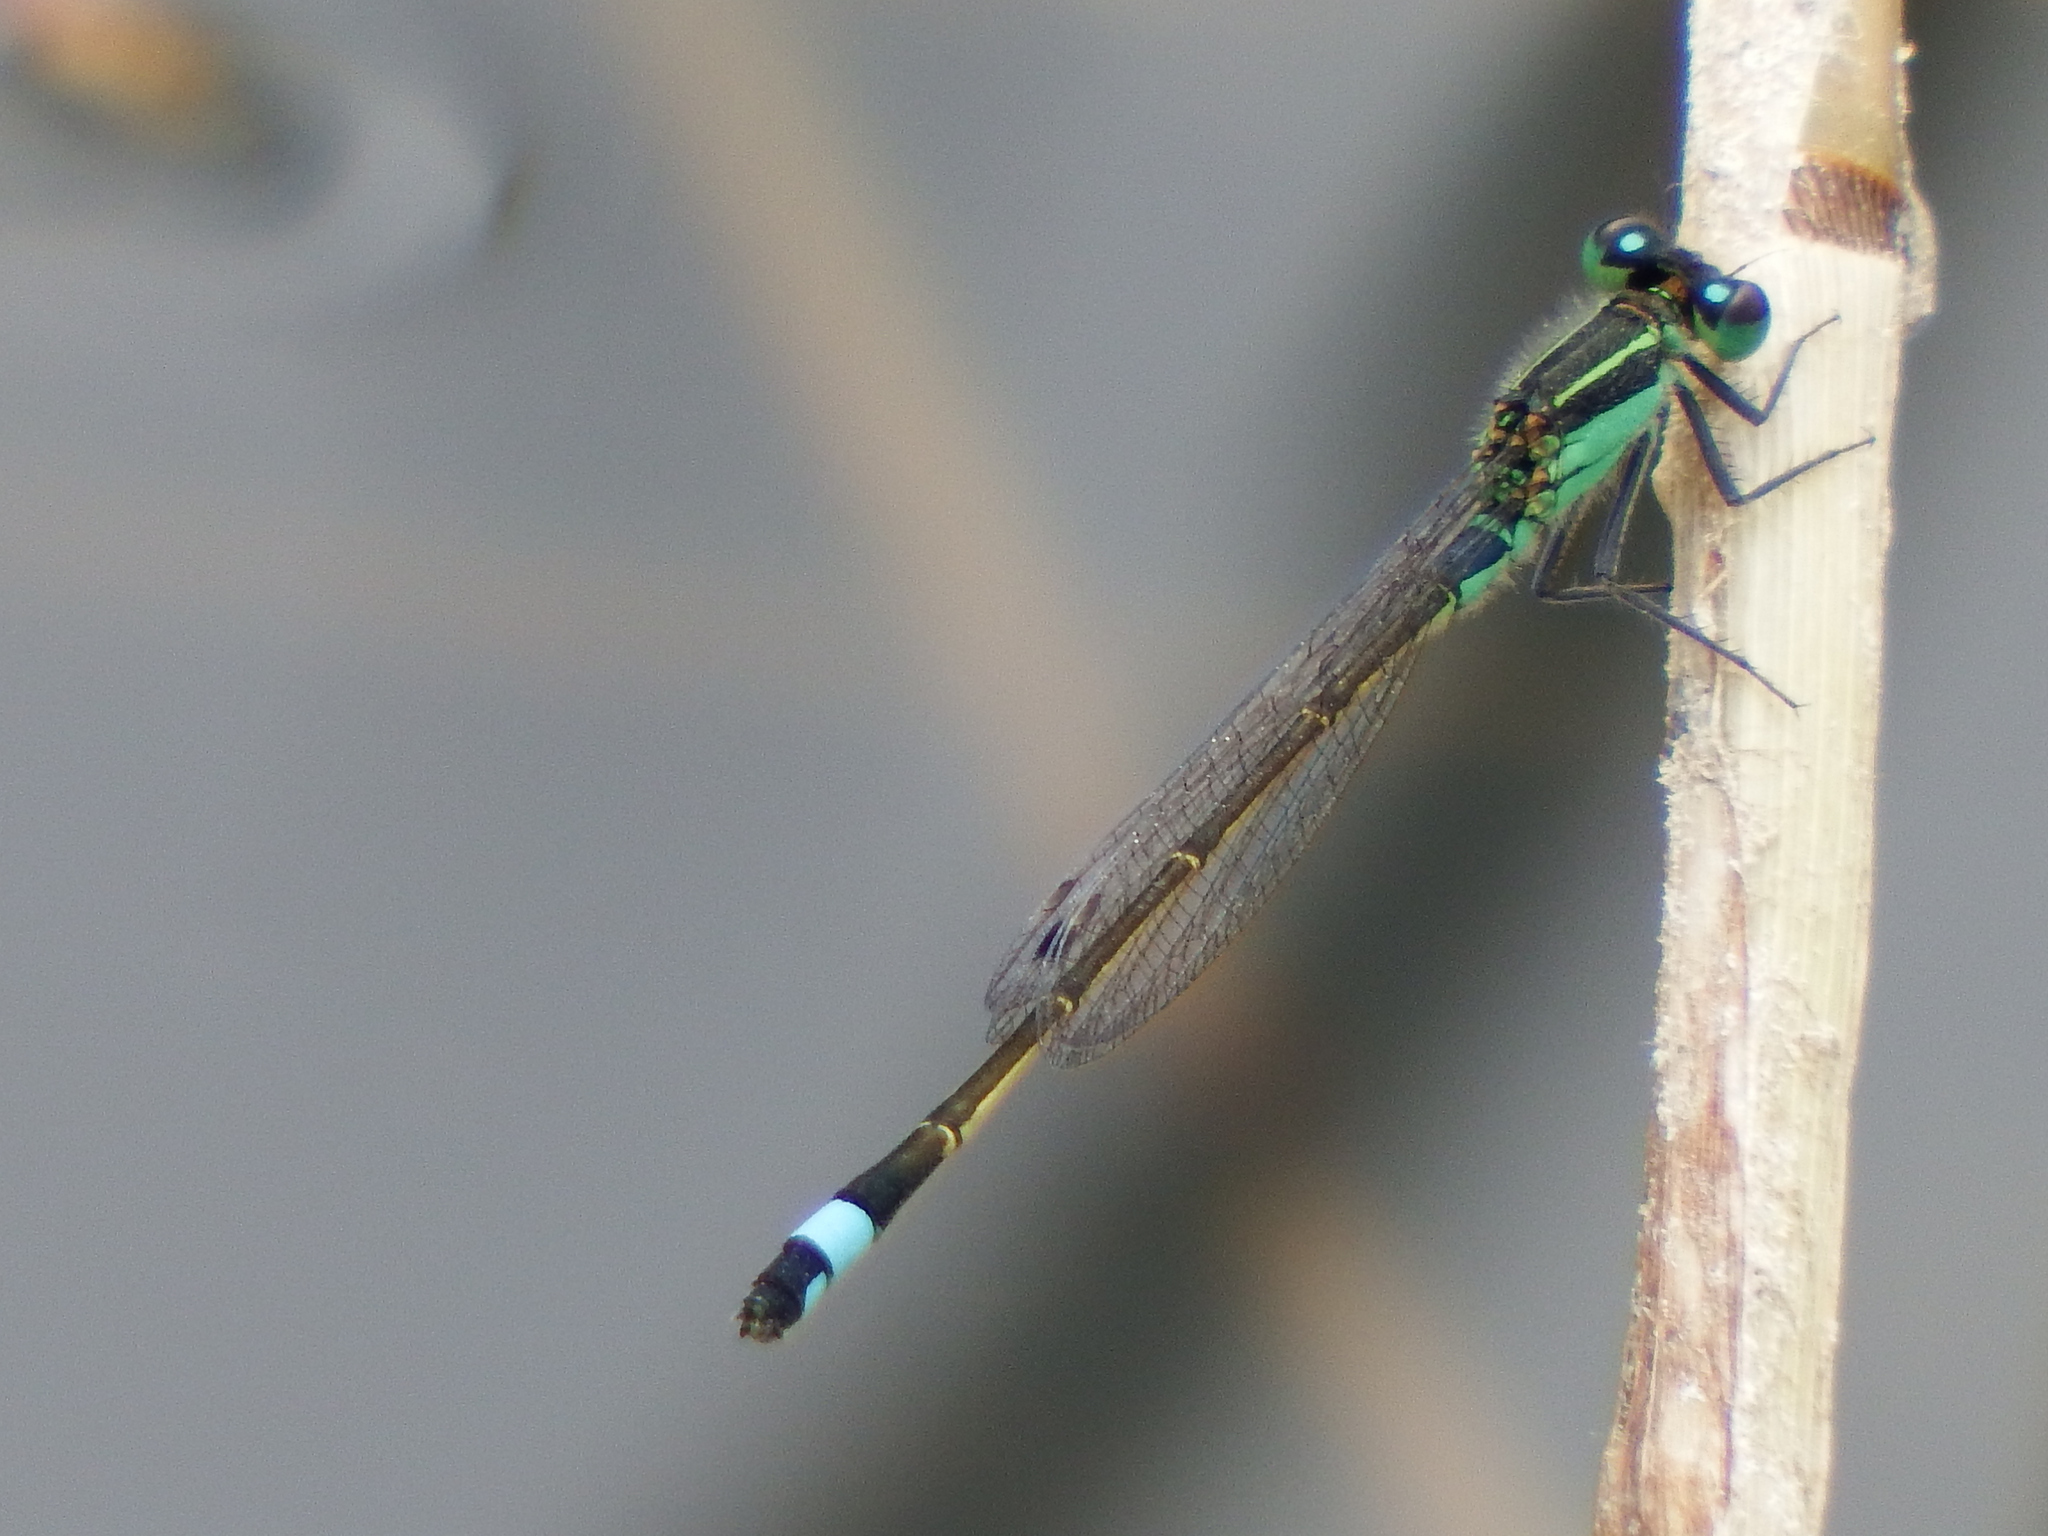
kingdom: Animalia
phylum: Arthropoda
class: Insecta
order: Odonata
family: Coenagrionidae
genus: Ischnura
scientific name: Ischnura ramburii
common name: Rambur's forktail
